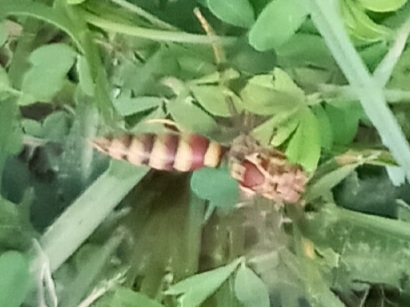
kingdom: Animalia
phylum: Arthropoda
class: Insecta
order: Hymenoptera
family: Eumenidae
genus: Polistes
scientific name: Polistes exclamans
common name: Paper wasp
